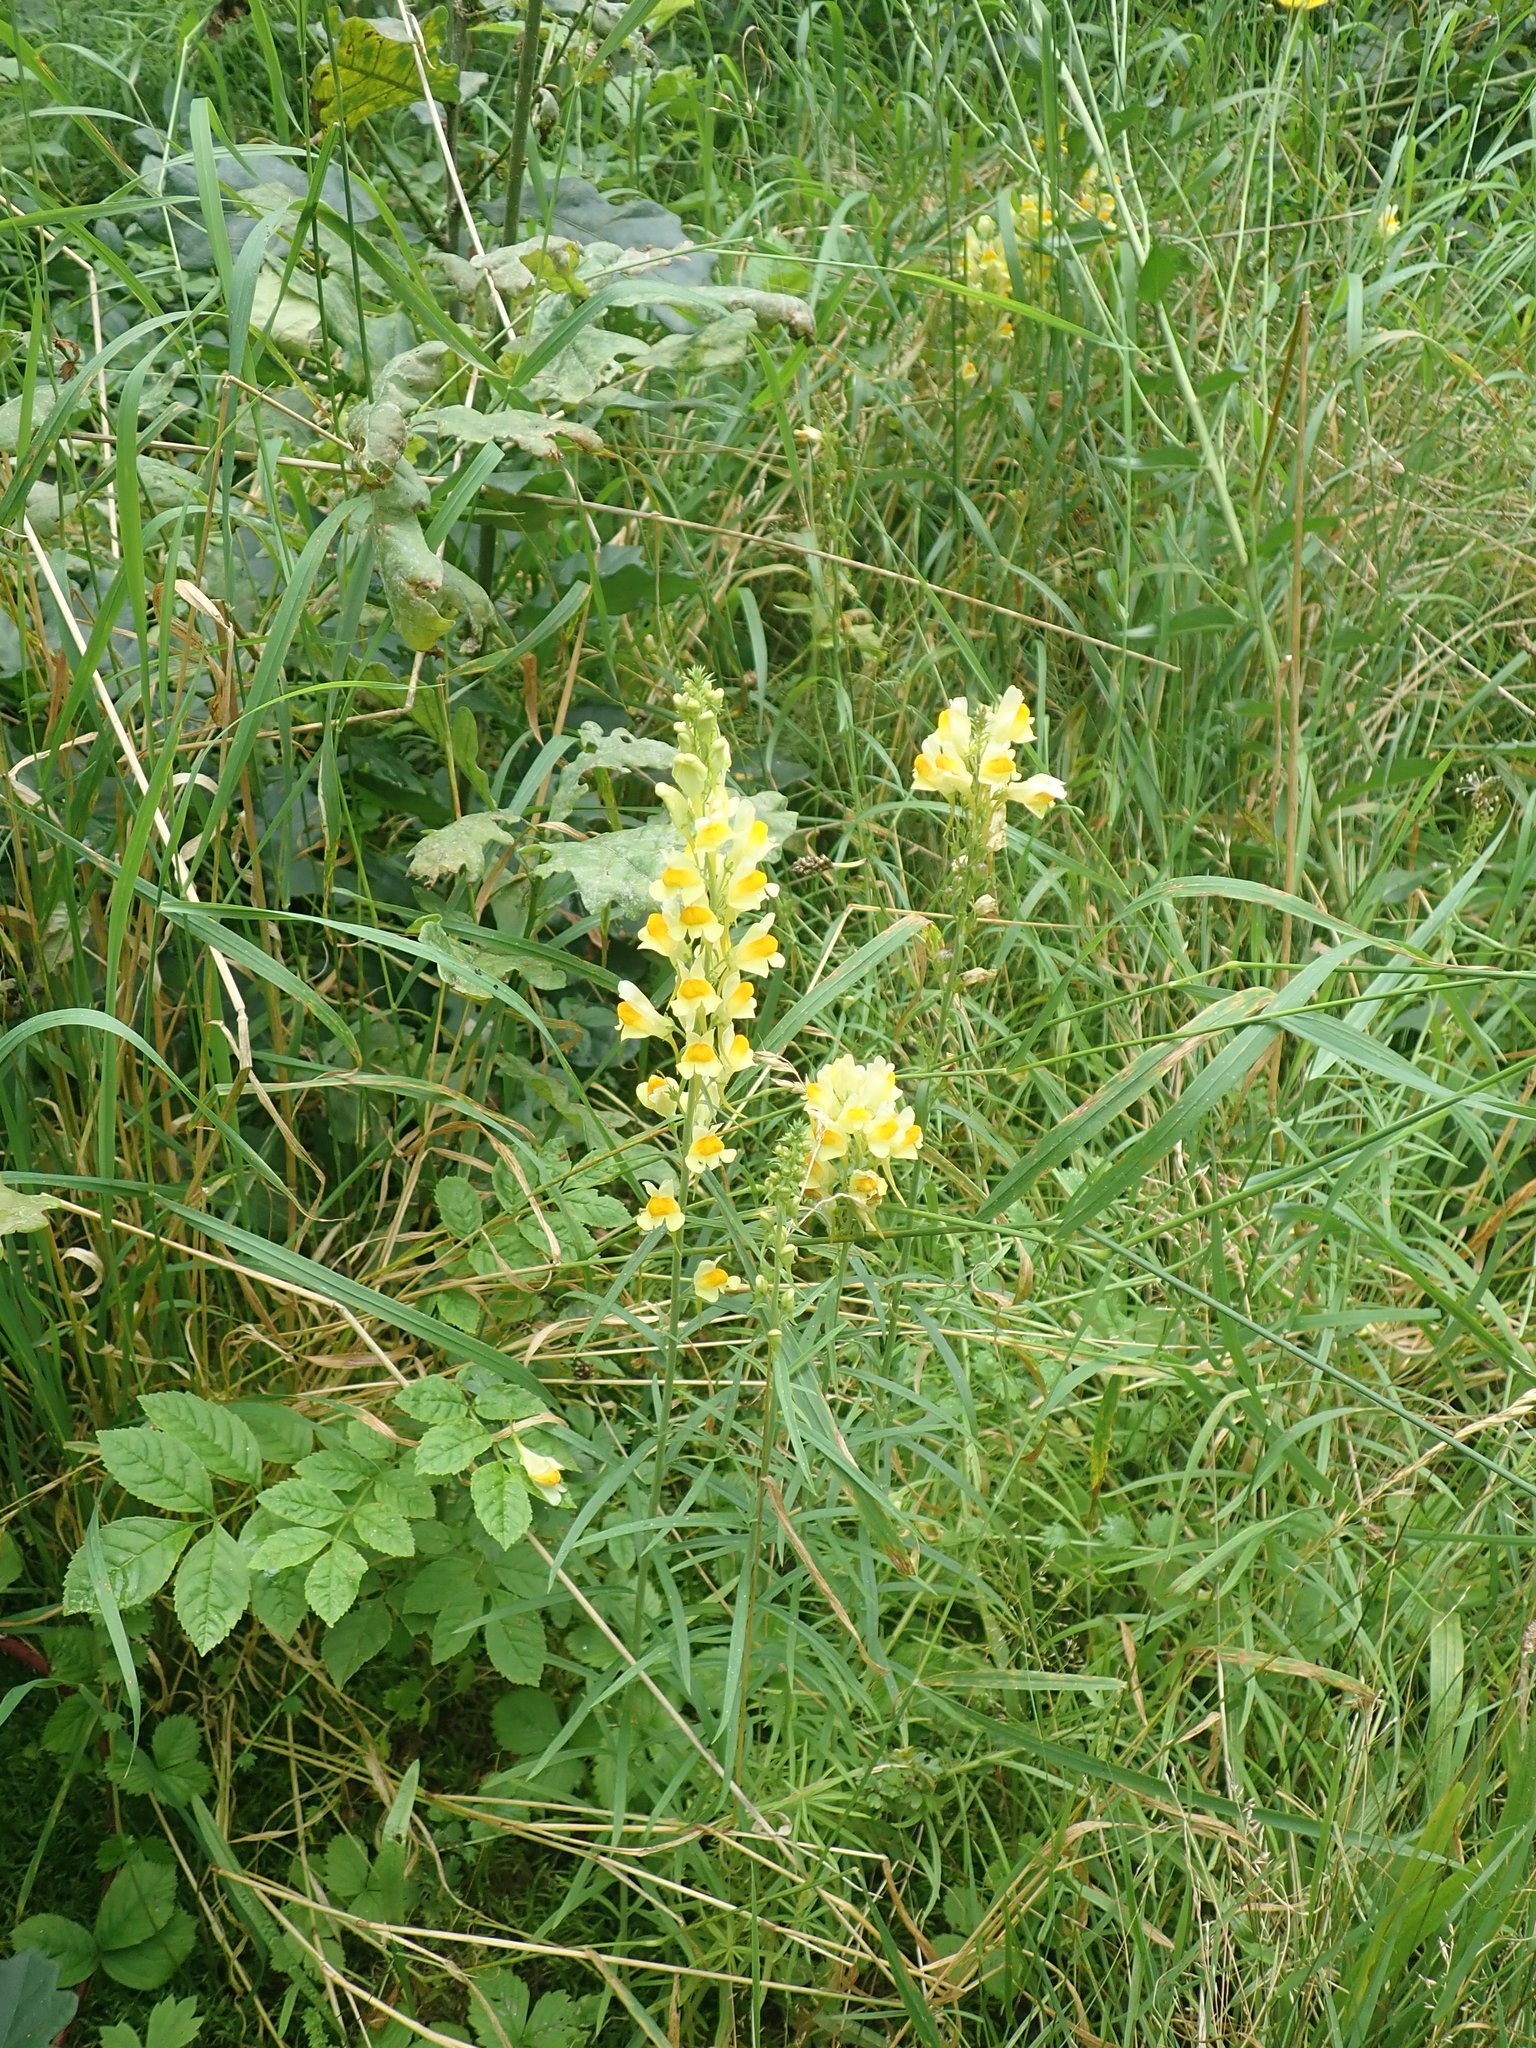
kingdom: Plantae
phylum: Tracheophyta
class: Magnoliopsida
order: Lamiales
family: Plantaginaceae
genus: Linaria
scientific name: Linaria vulgaris
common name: Butter and eggs
